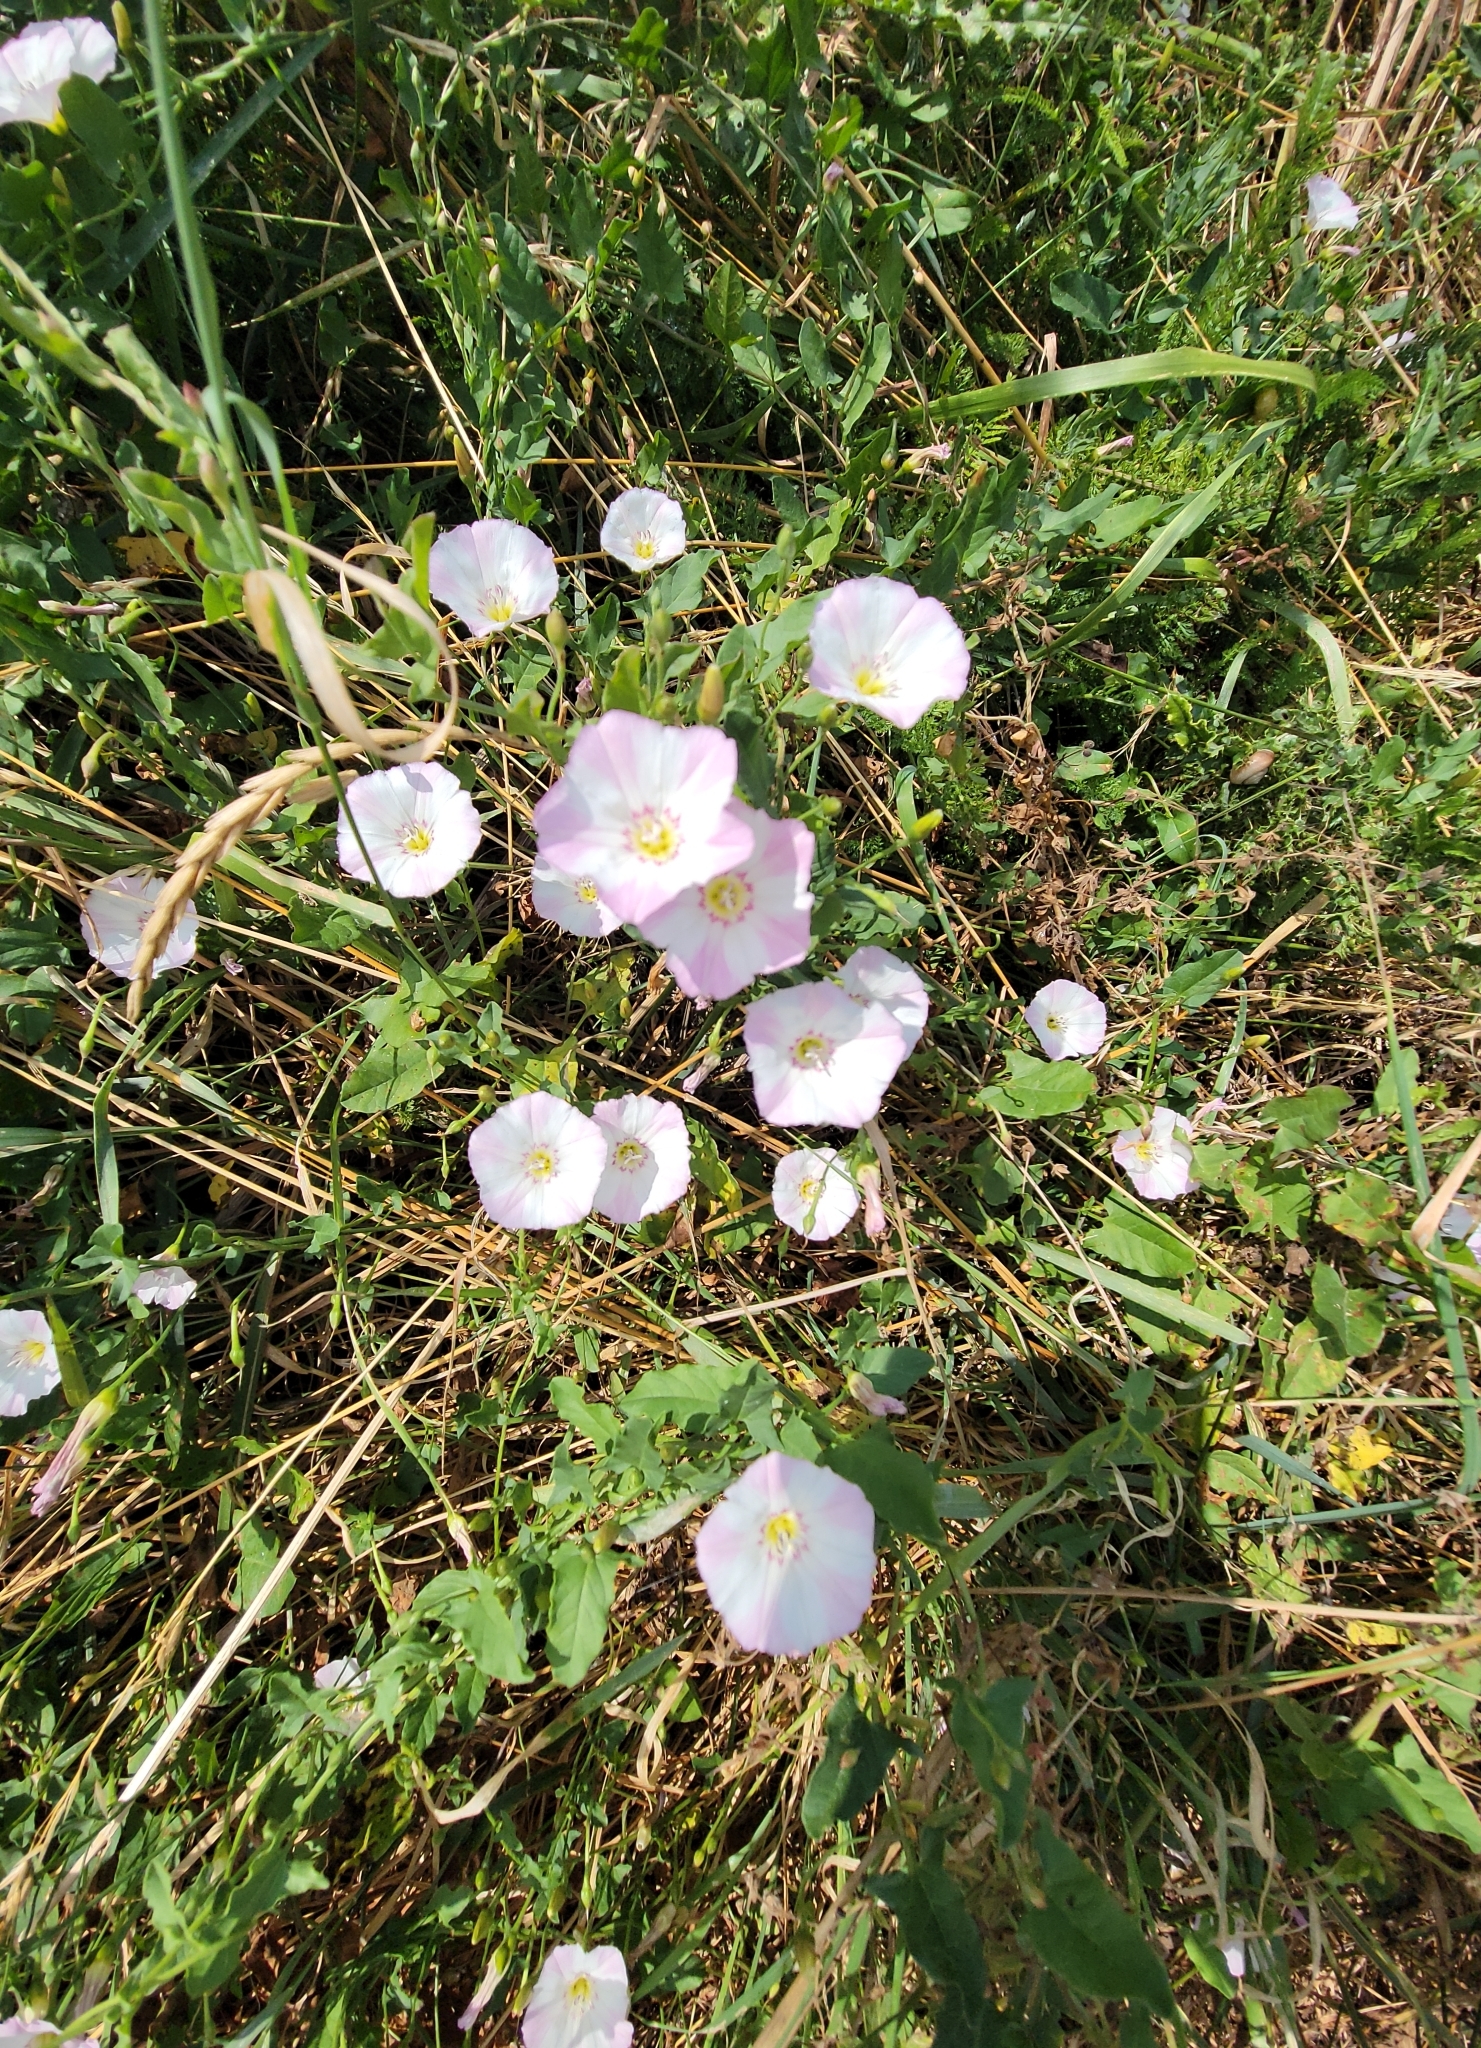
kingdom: Plantae
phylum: Tracheophyta
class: Magnoliopsida
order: Solanales
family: Convolvulaceae
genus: Convolvulus
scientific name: Convolvulus arvensis
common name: Field bindweed
